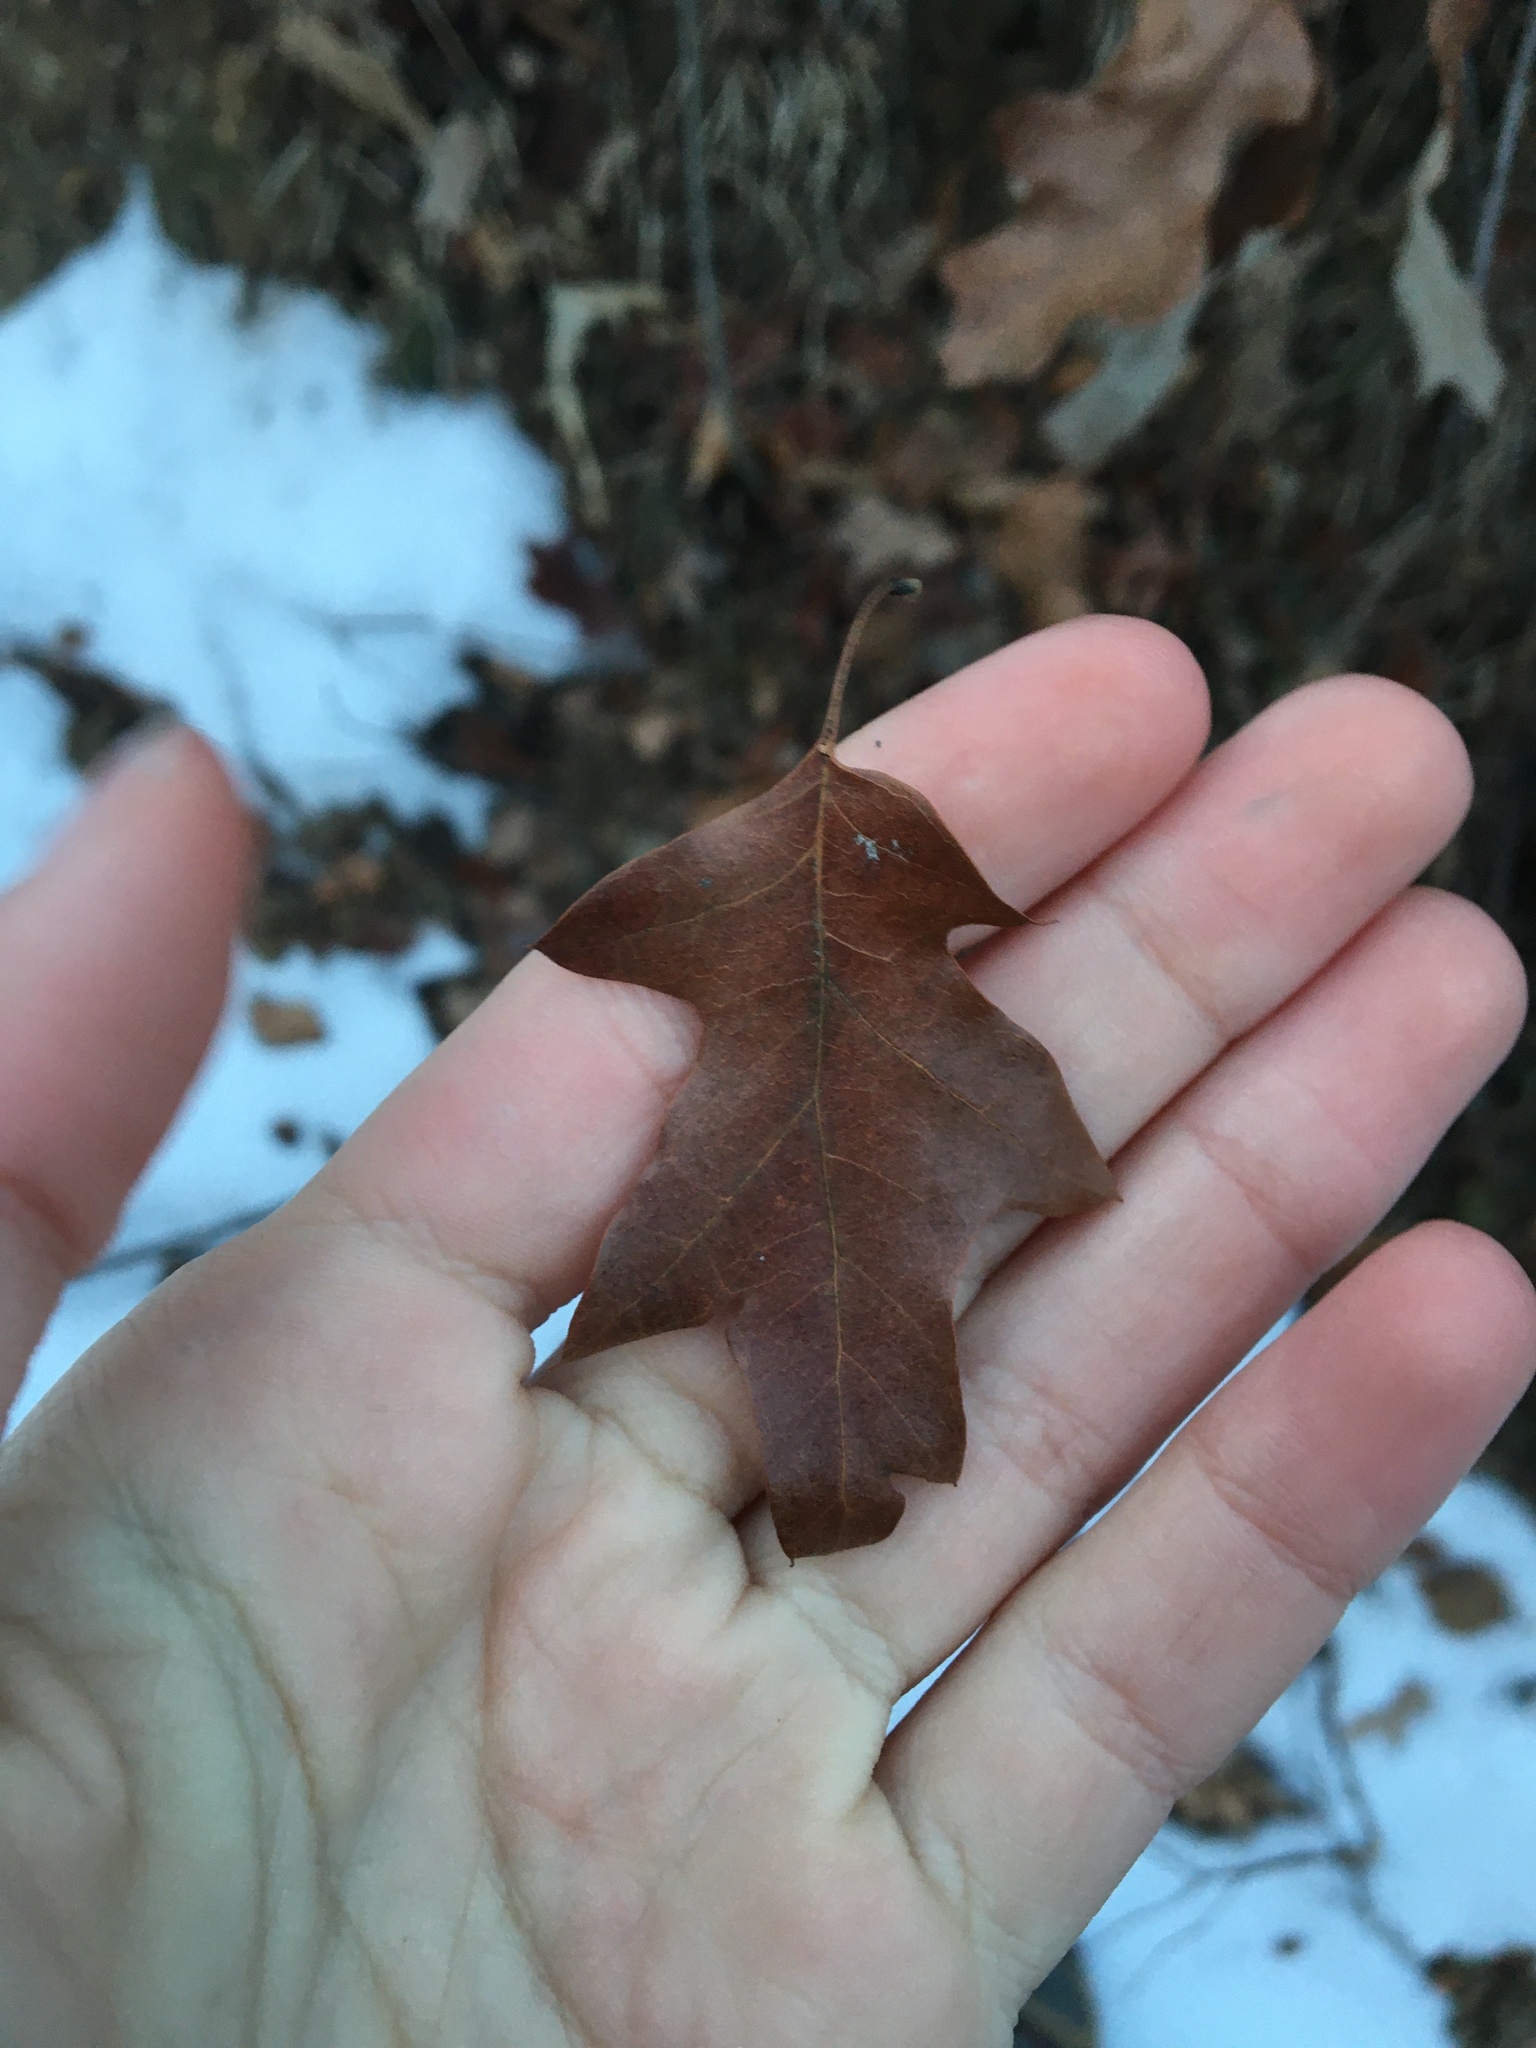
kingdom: Plantae
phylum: Tracheophyta
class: Magnoliopsida
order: Fagales
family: Fagaceae
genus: Quercus
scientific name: Quercus ilicifolia
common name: Bear oak
